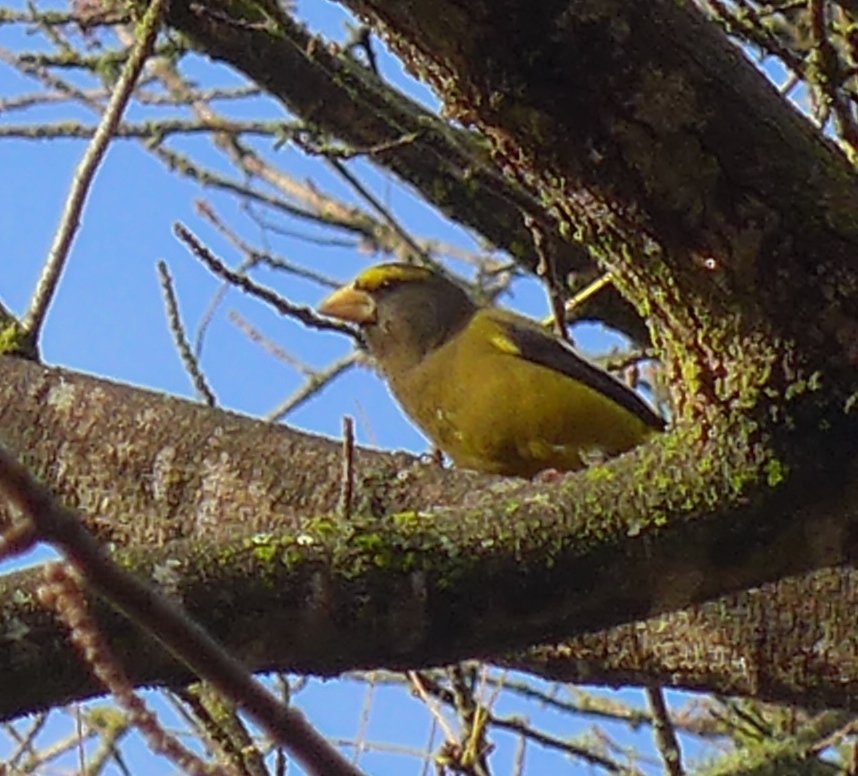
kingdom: Animalia
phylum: Chordata
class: Aves
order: Passeriformes
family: Fringillidae
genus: Hesperiphona
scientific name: Hesperiphona vespertina
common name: Evening grosbeak
